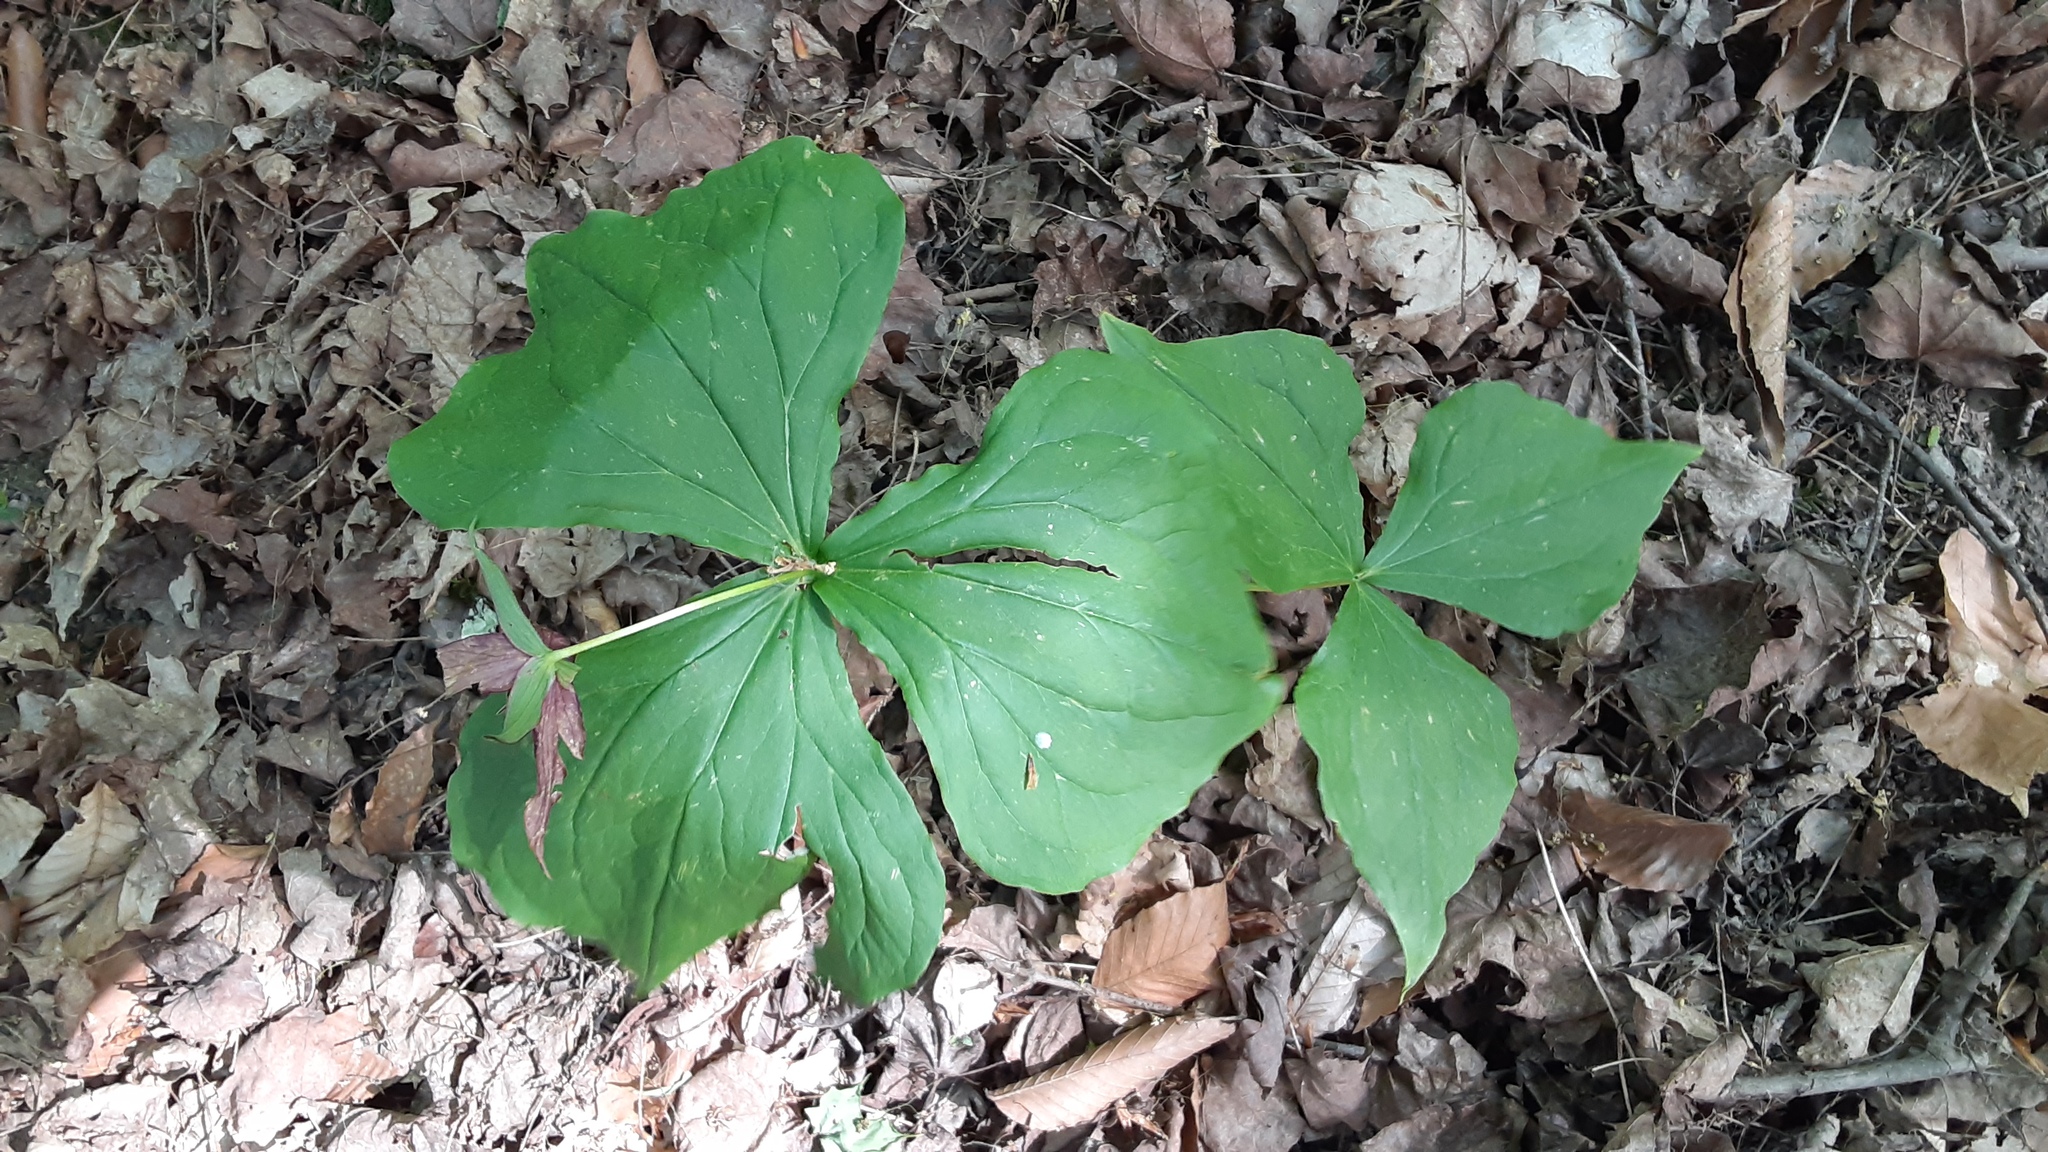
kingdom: Plantae
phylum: Tracheophyta
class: Liliopsida
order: Liliales
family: Melanthiaceae
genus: Trillium
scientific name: Trillium erectum
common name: Purple trillium
